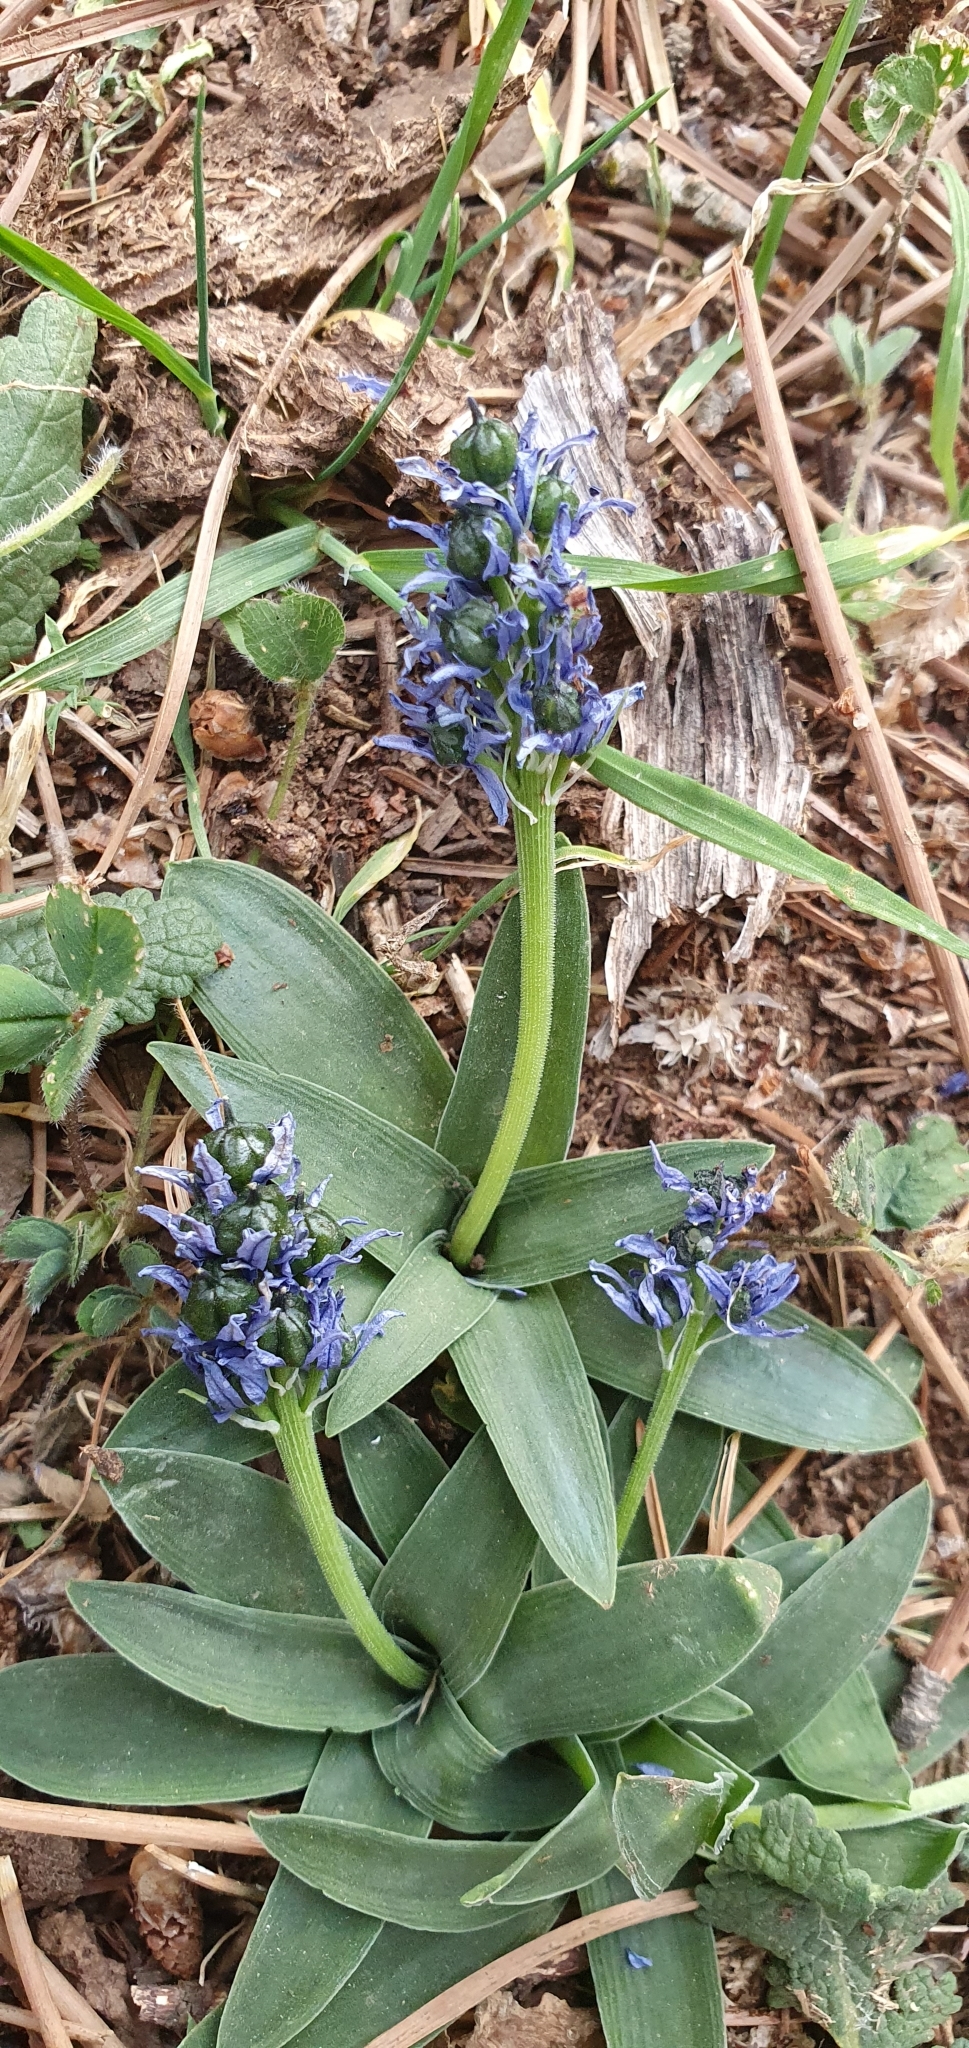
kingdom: Plantae
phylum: Tracheophyta
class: Liliopsida
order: Asparagales
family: Asparagaceae
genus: Hyacinthoides
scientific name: Hyacinthoides lingulata
